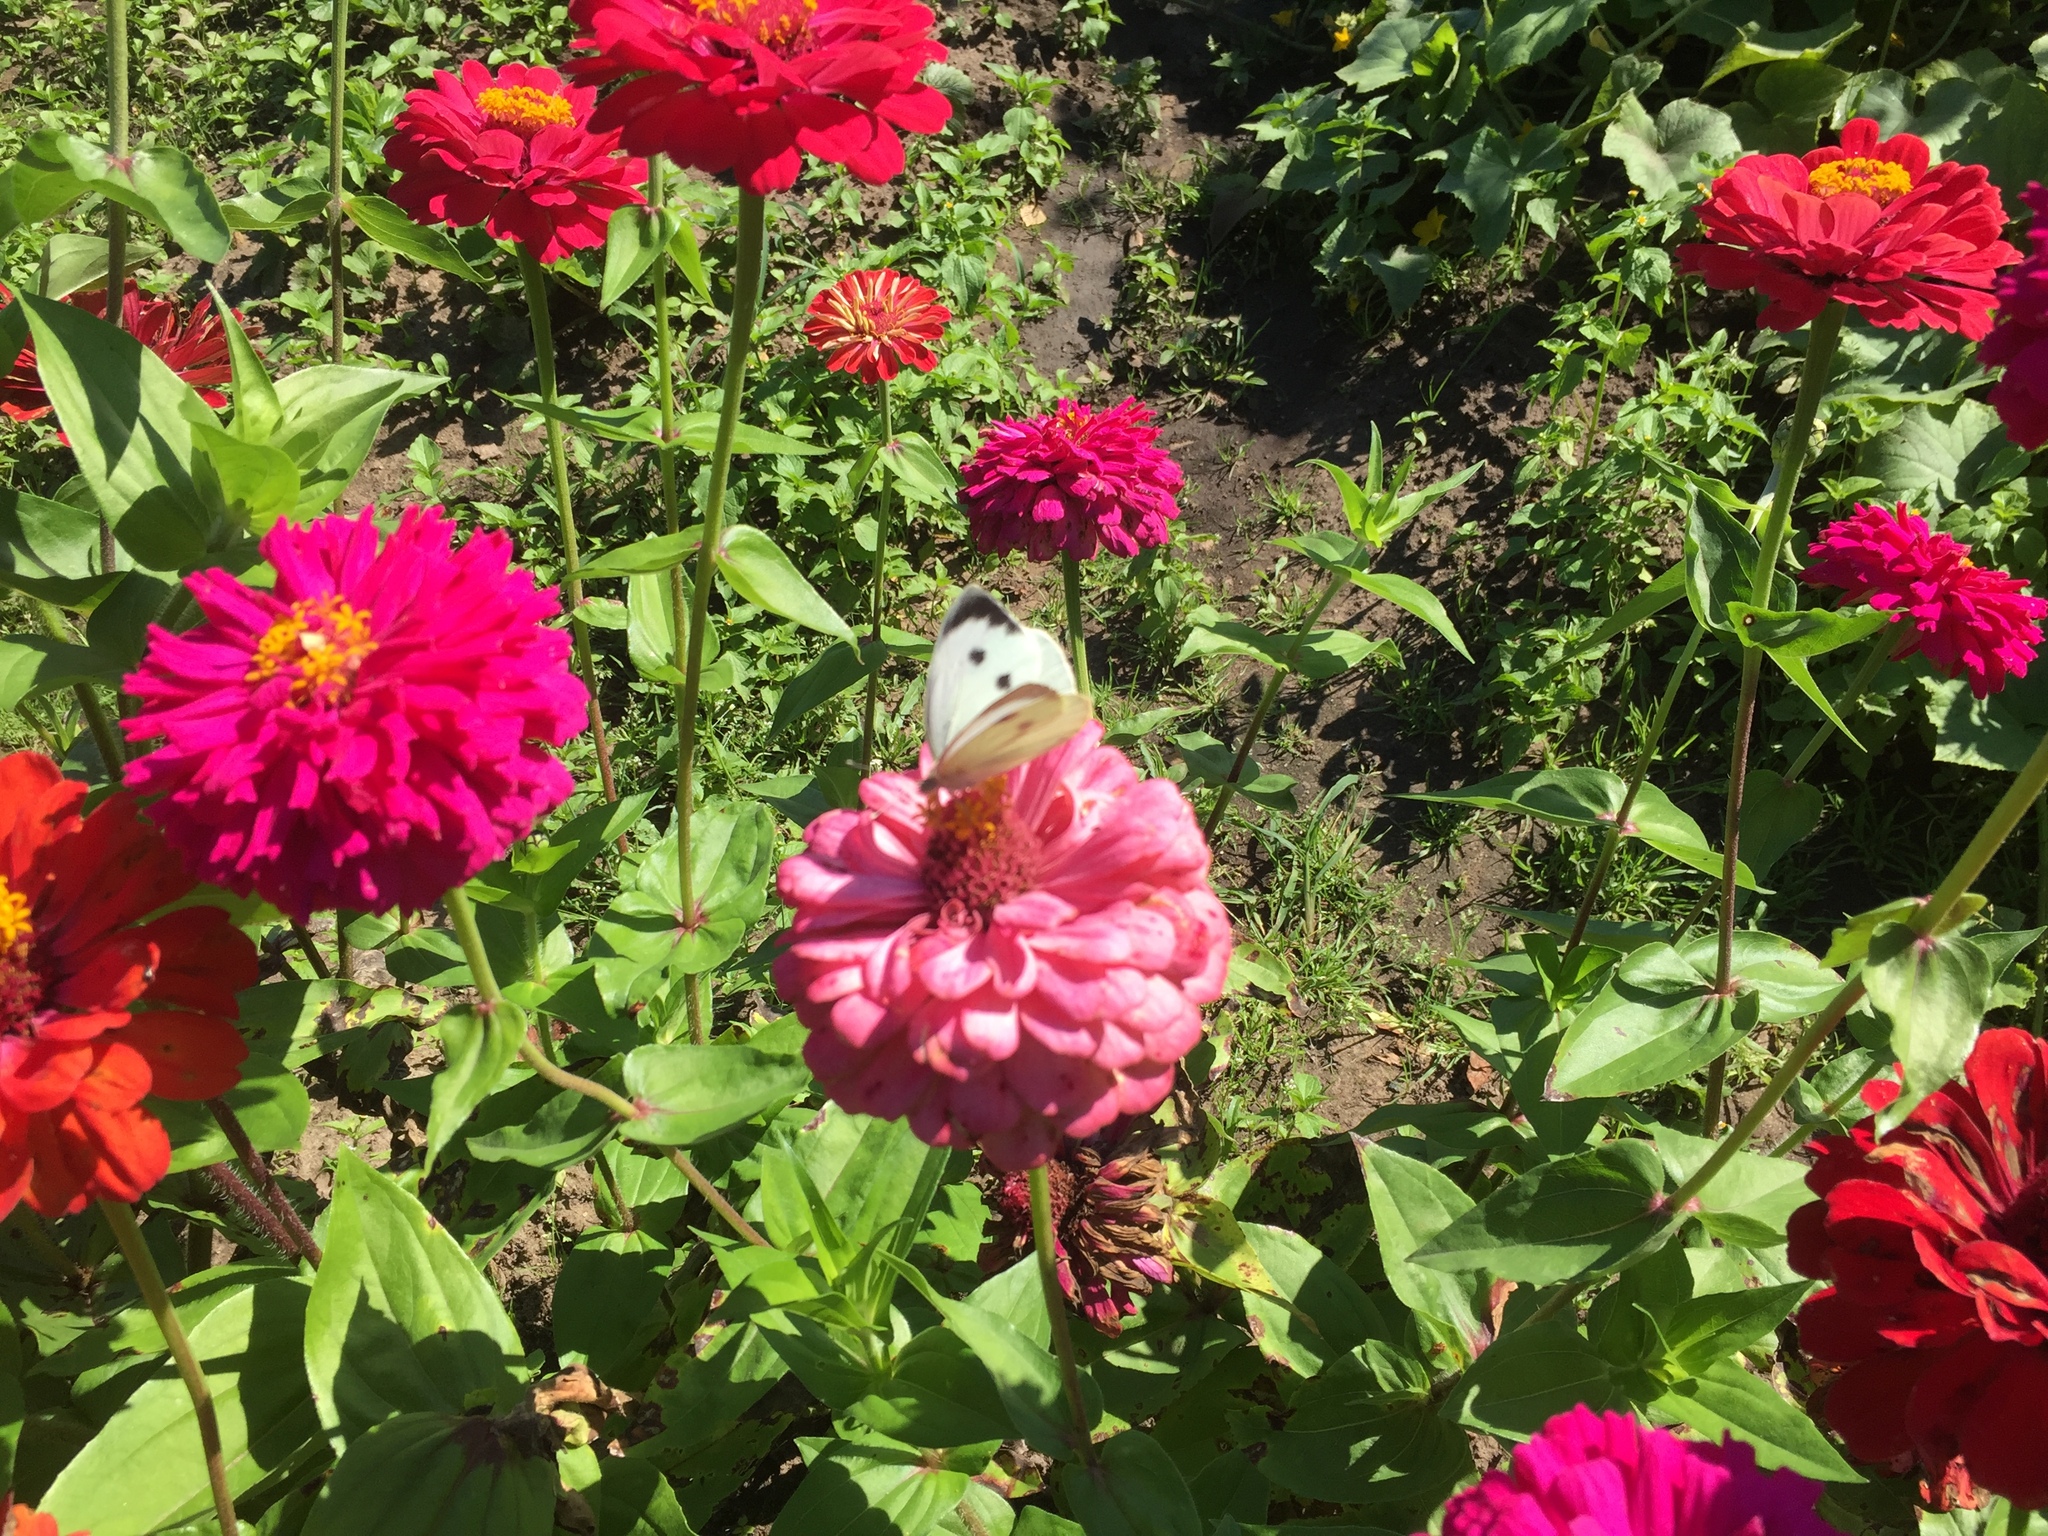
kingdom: Animalia
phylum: Arthropoda
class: Insecta
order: Lepidoptera
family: Pieridae
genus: Pieris
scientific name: Pieris brassicae
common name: Large white
